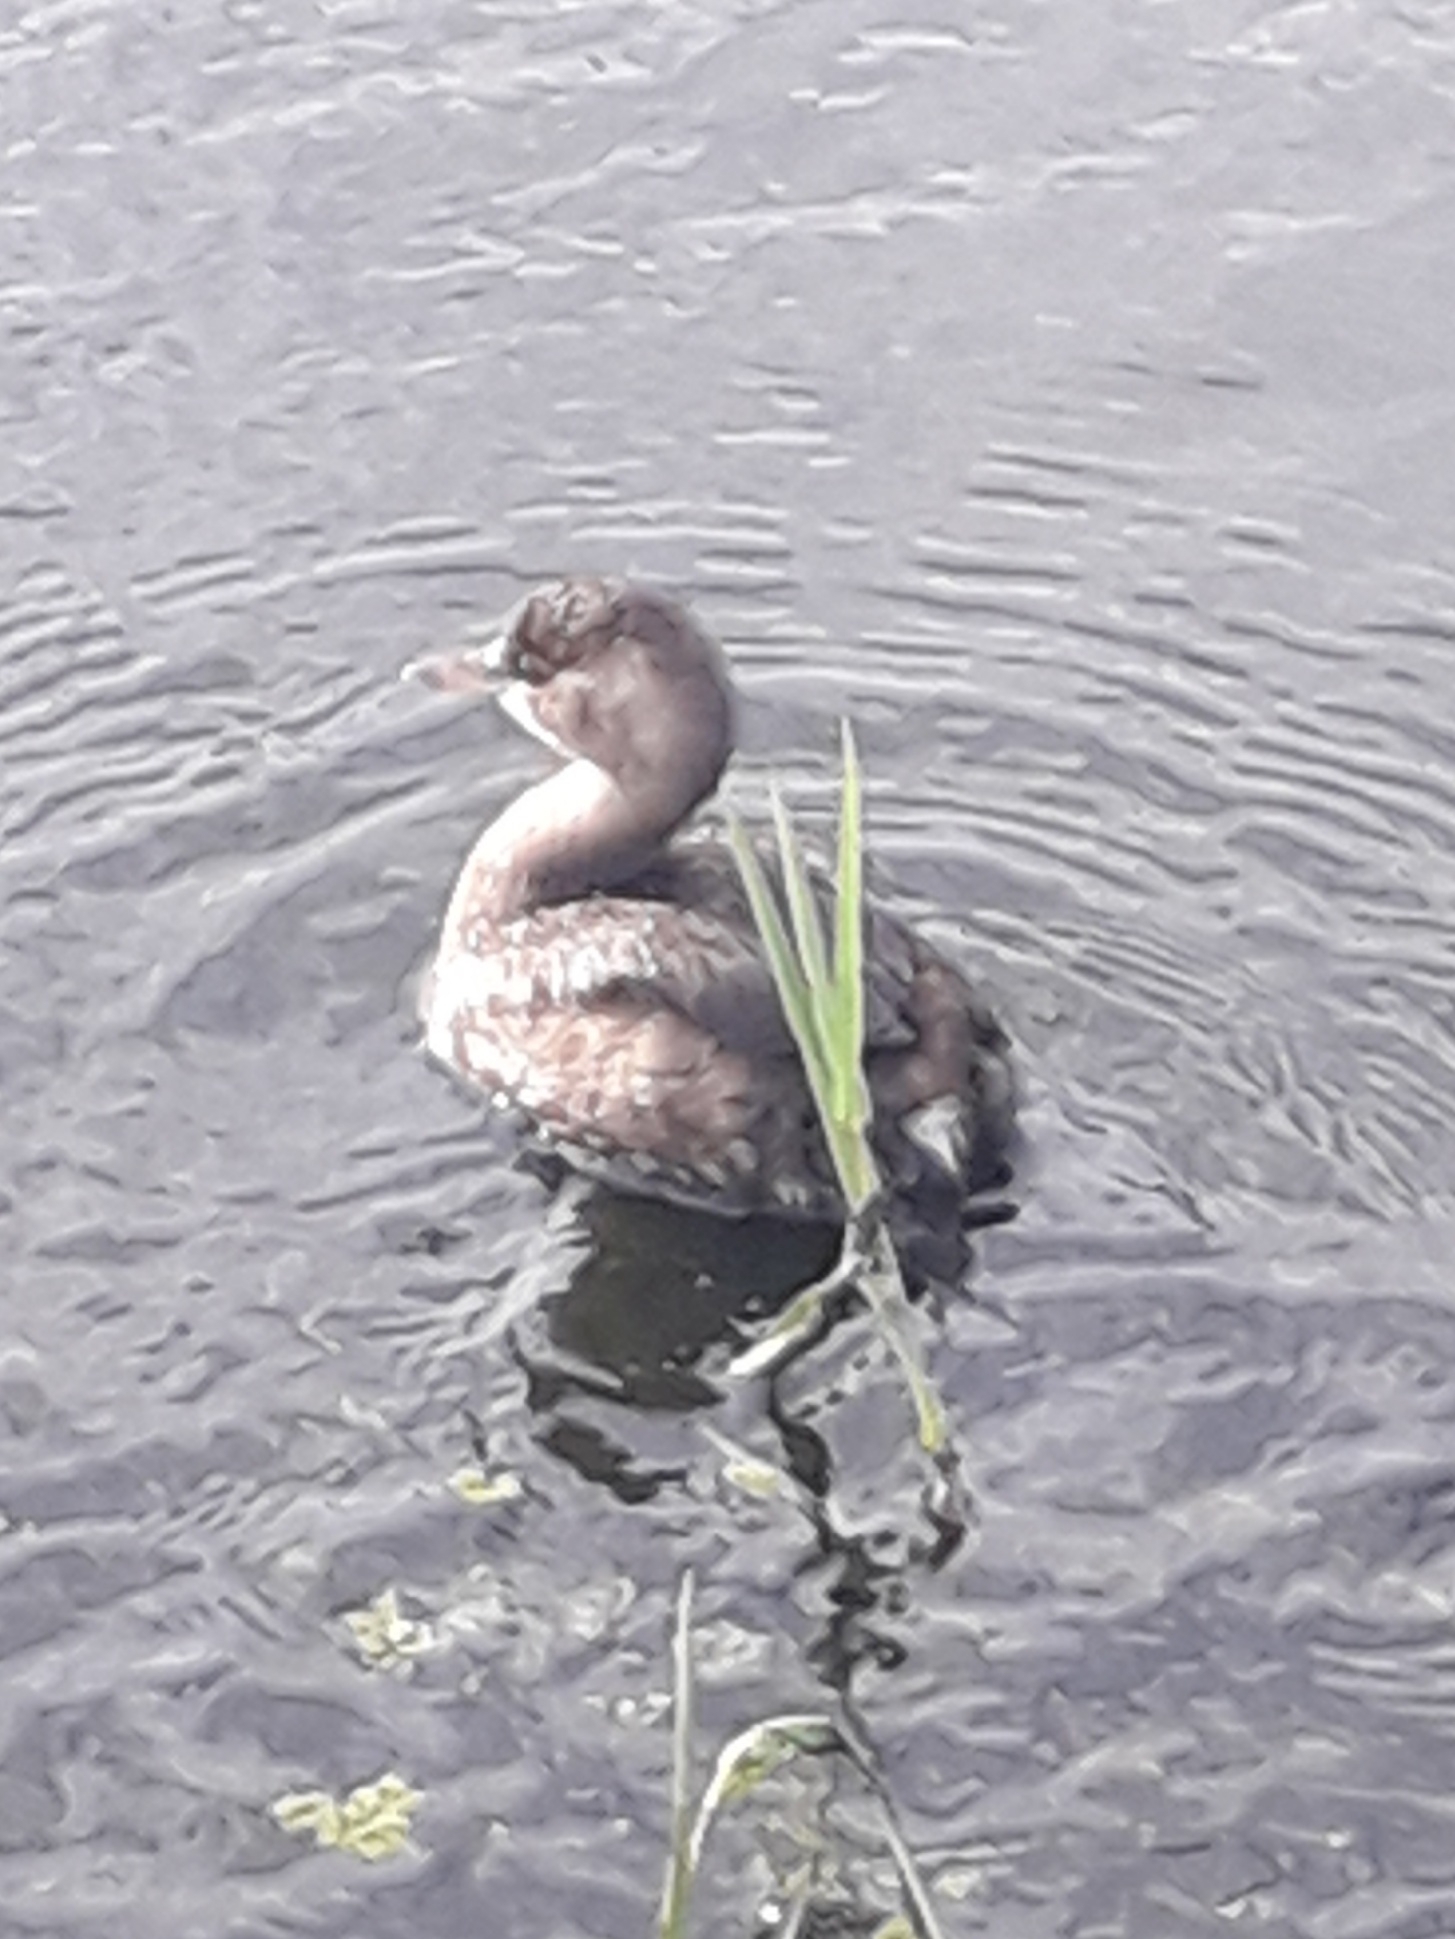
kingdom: Animalia
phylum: Chordata
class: Aves
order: Podicipediformes
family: Podicipedidae
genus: Tachybaptus
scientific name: Tachybaptus ruficollis
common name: Little grebe
